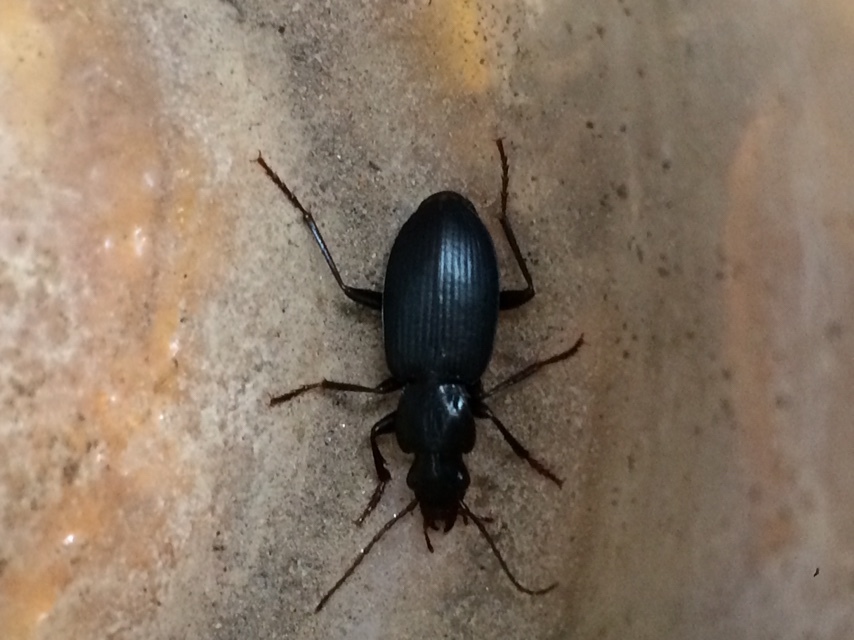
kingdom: Animalia
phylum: Arthropoda
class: Insecta
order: Coleoptera
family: Carabidae
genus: Laemostenus
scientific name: Laemostenus complanatus
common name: Cosmopolitan ground beetle
